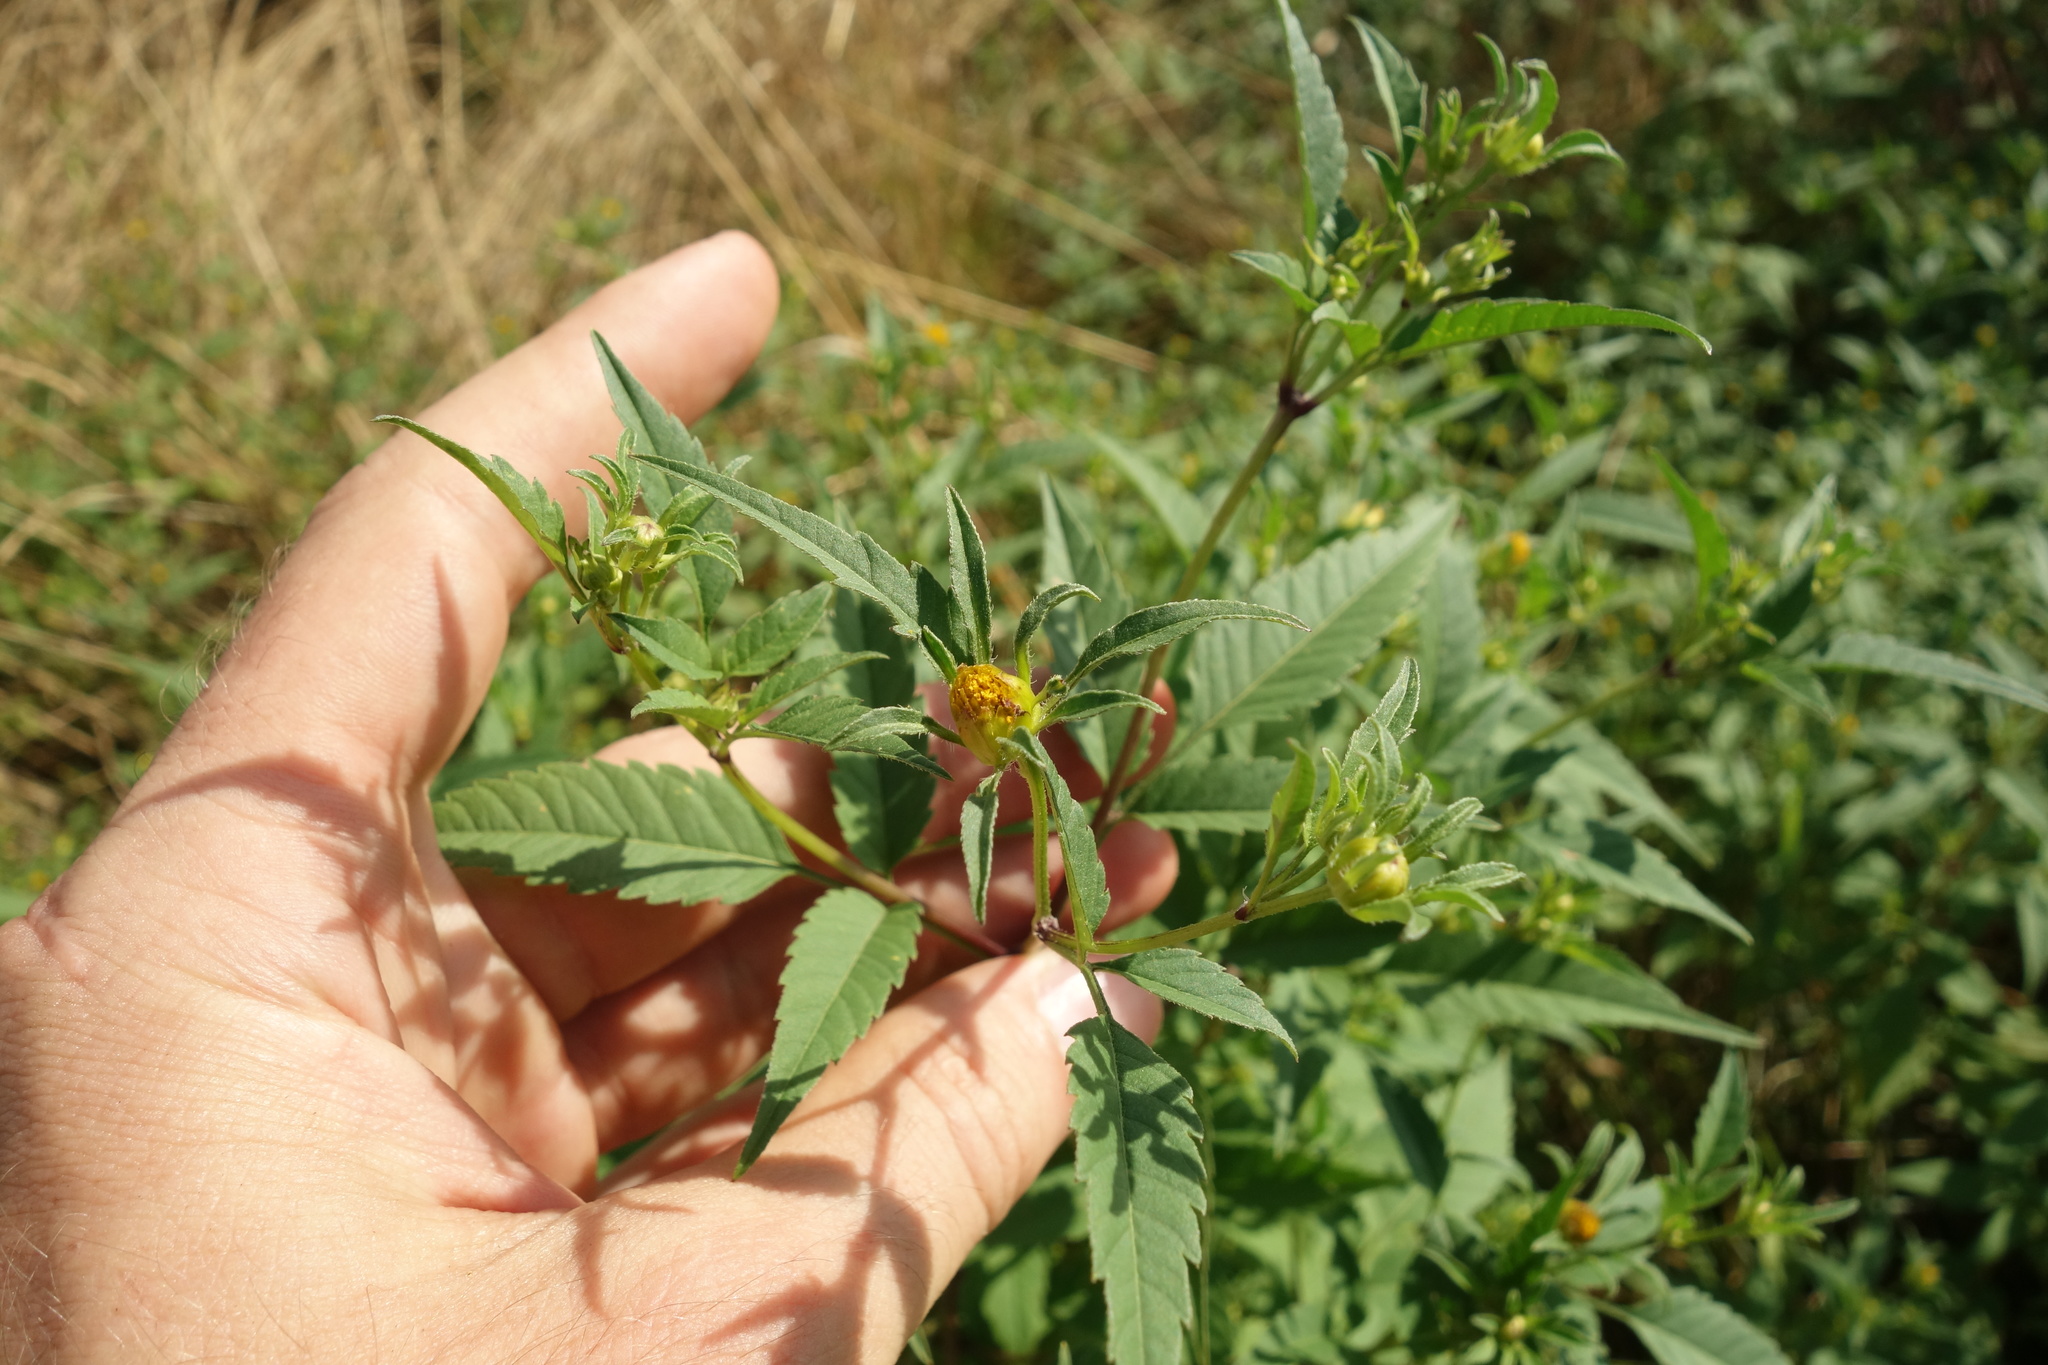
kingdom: Plantae
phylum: Tracheophyta
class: Magnoliopsida
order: Asterales
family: Asteraceae
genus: Bidens
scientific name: Bidens frondosa
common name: Beggarticks
